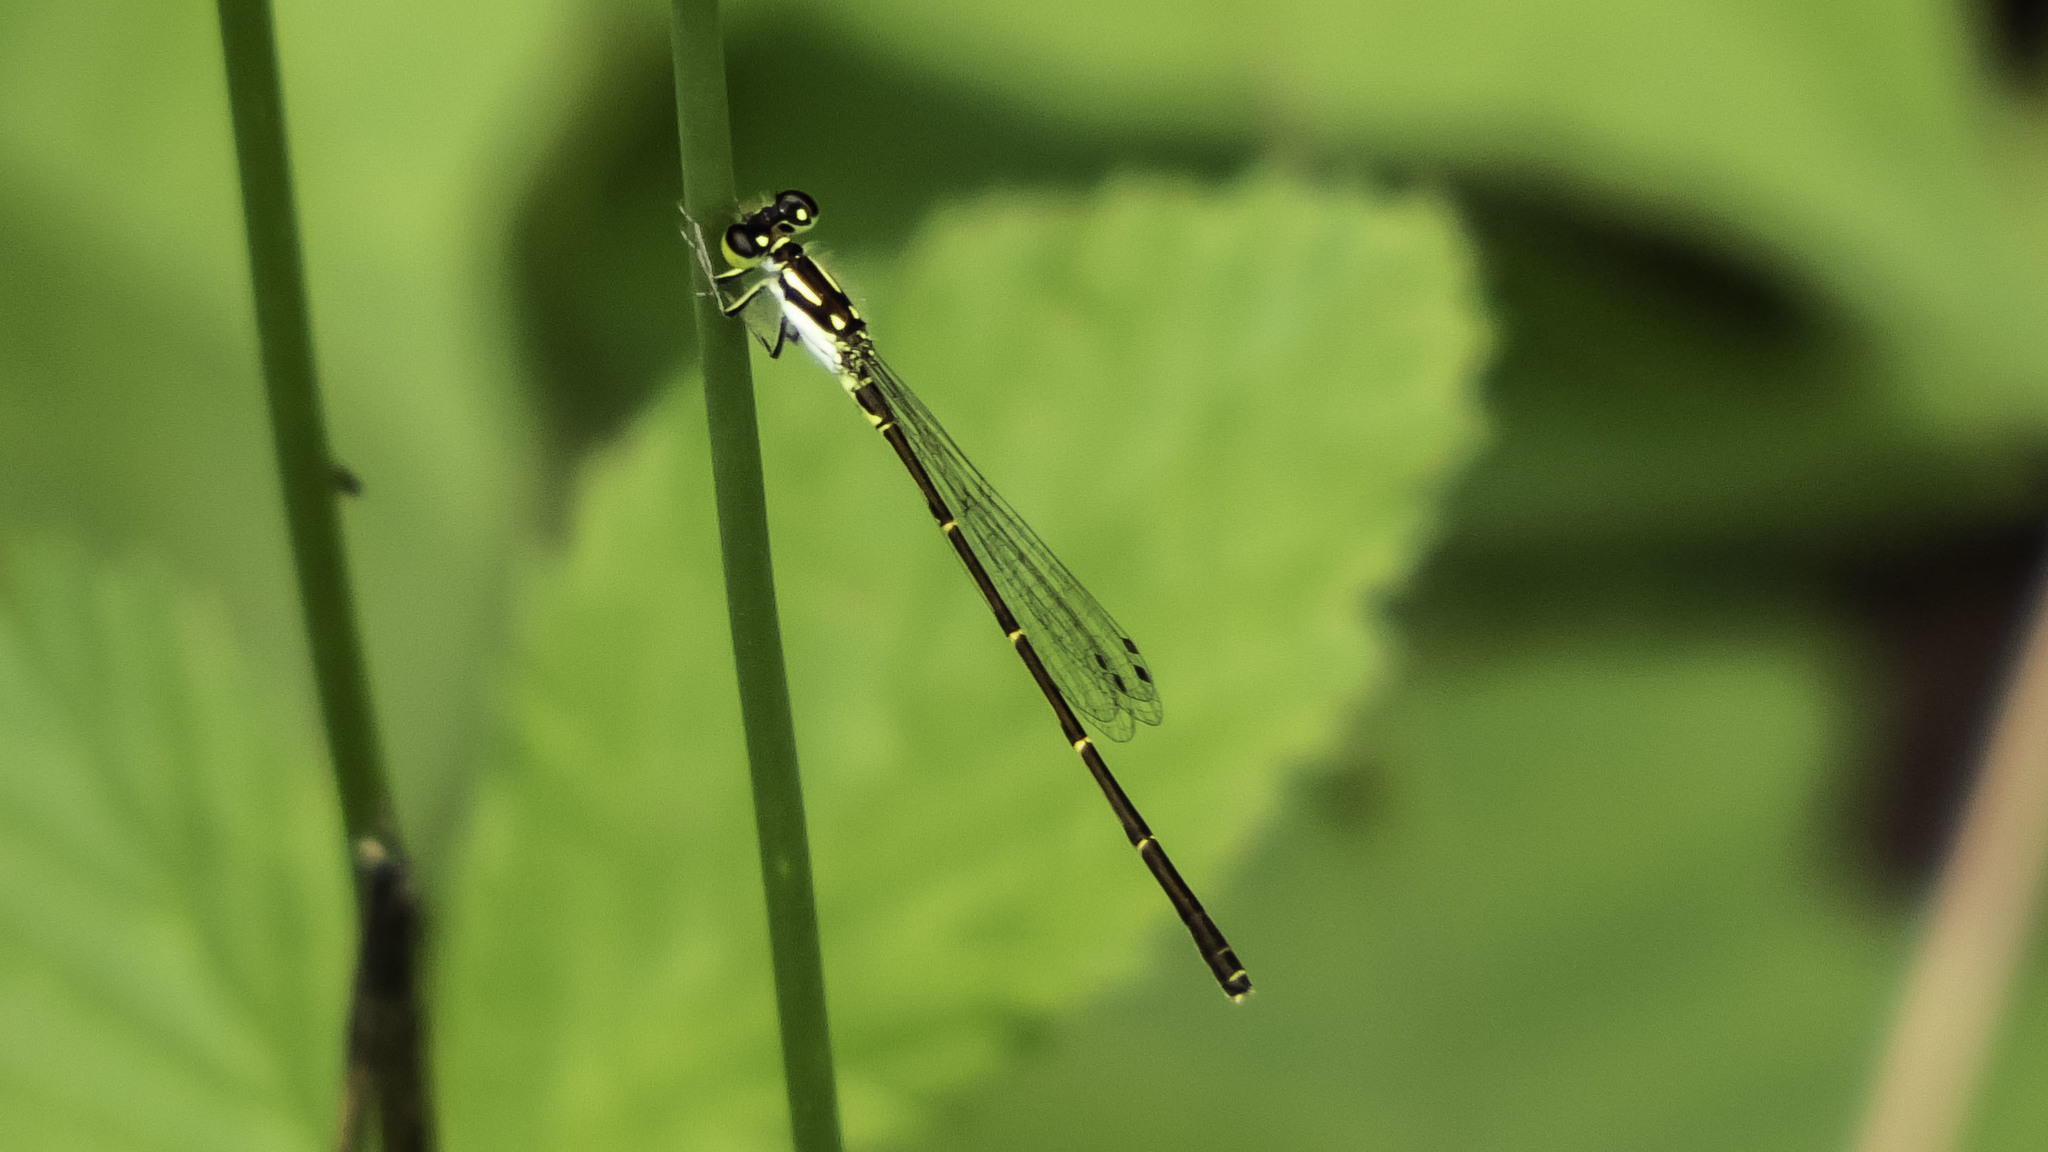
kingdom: Animalia
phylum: Arthropoda
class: Insecta
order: Odonata
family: Coenagrionidae
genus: Ischnura
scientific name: Ischnura posita
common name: Fragile forktail
